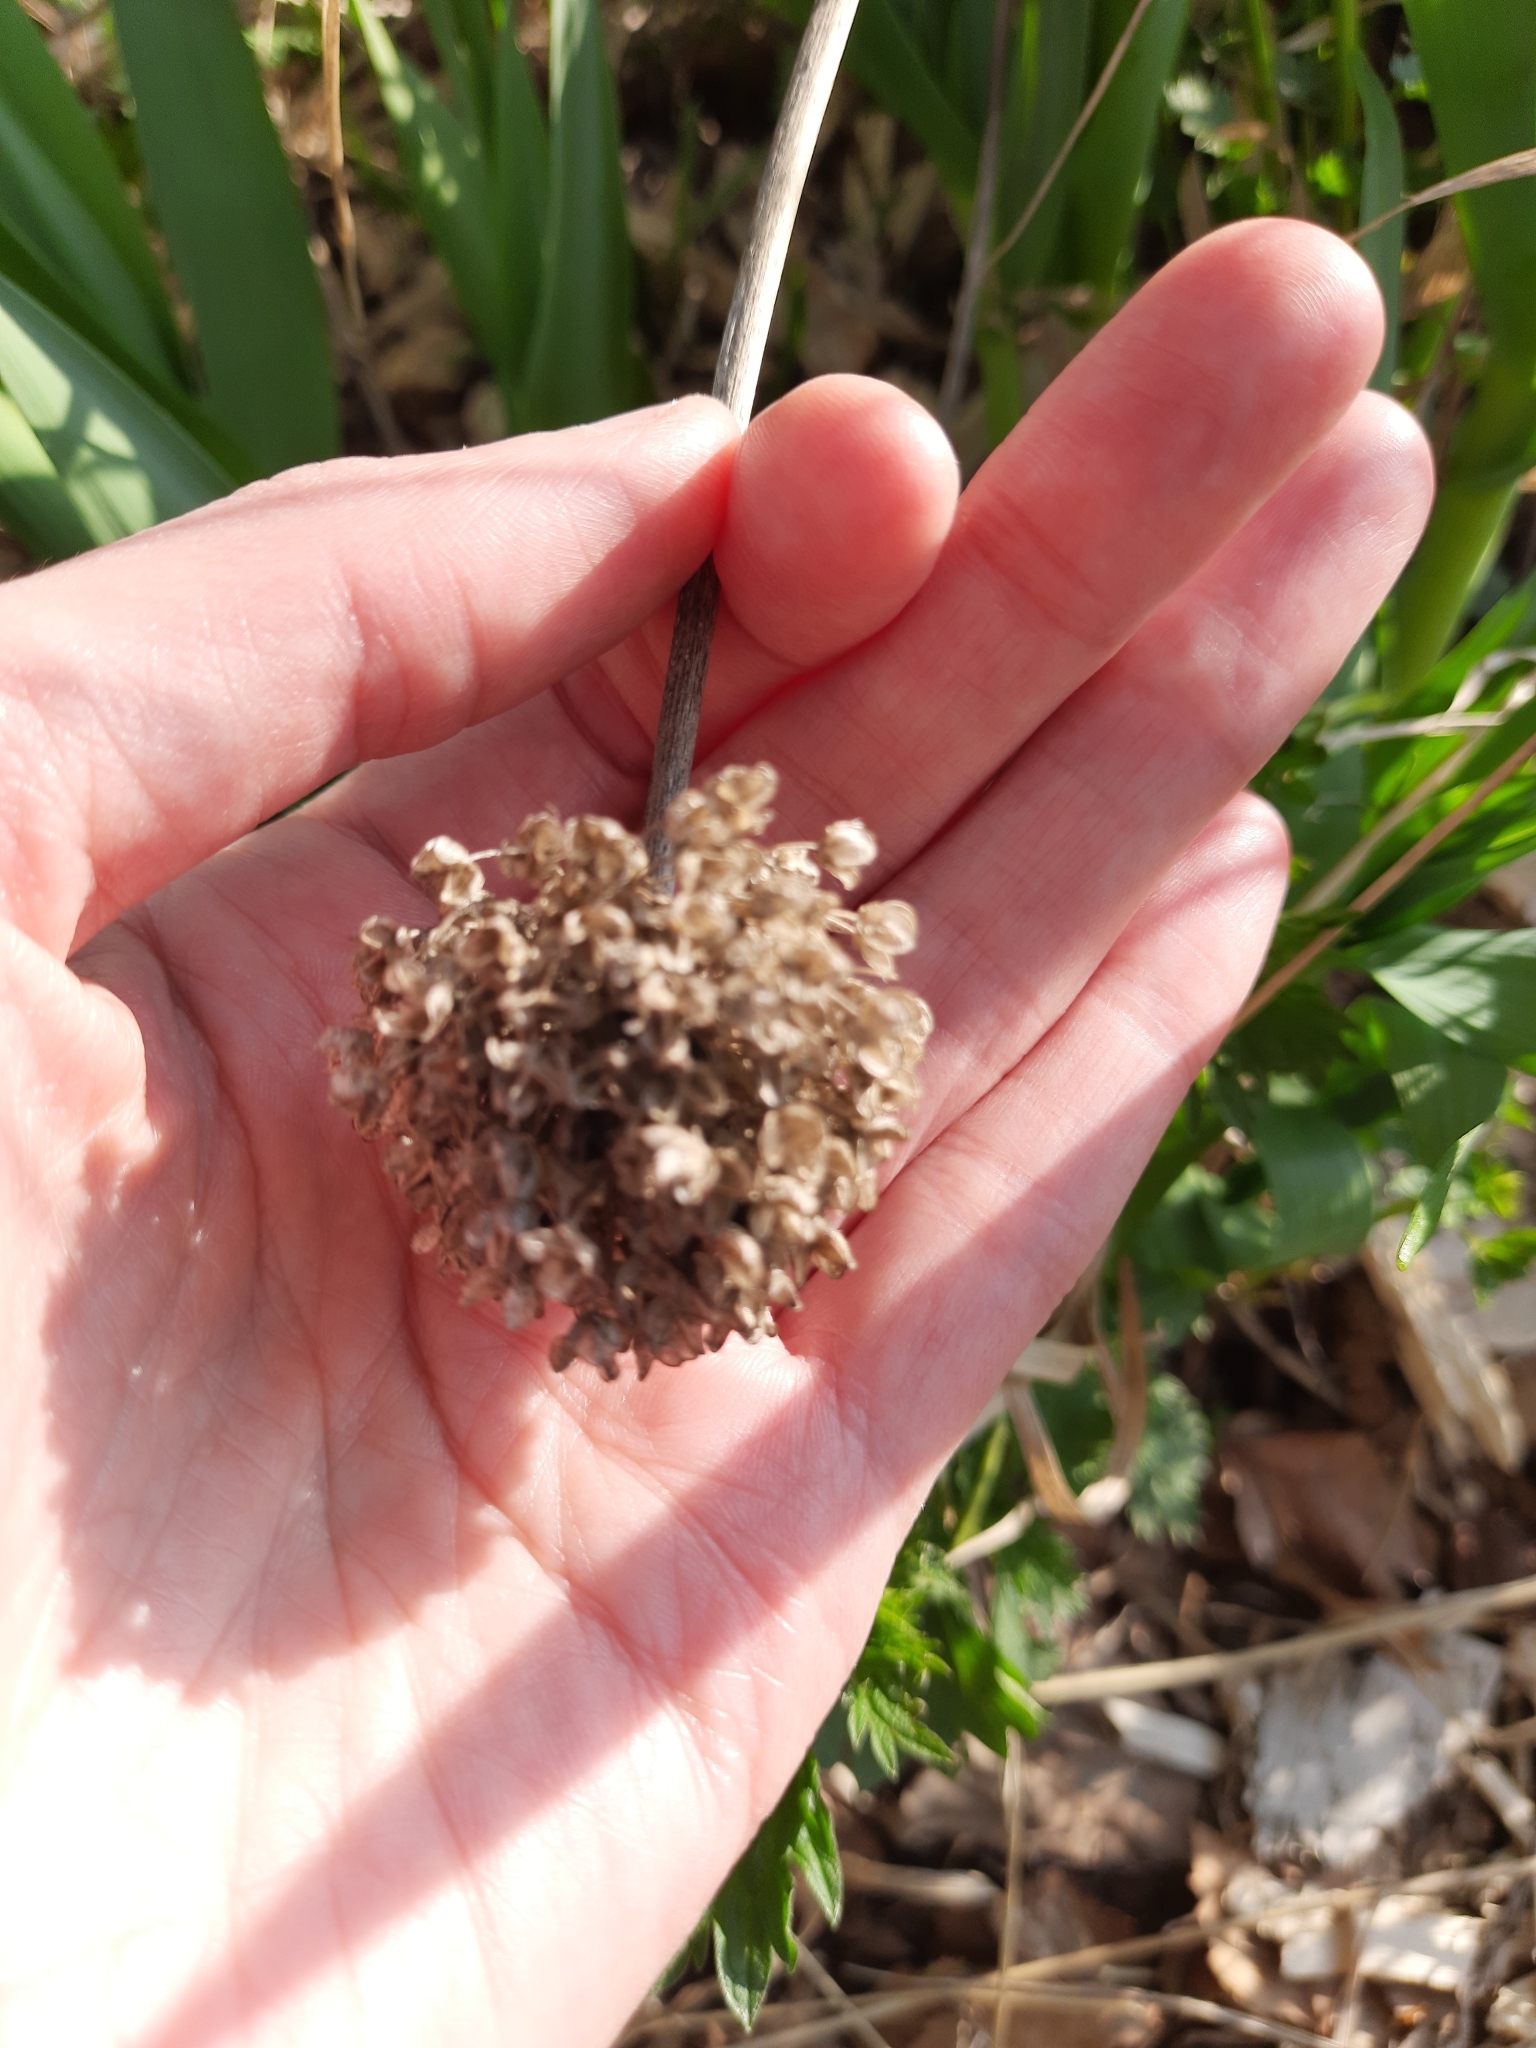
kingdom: Plantae
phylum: Tracheophyta
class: Liliopsida
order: Asparagales
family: Amaryllidaceae
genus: Allium
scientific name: Allium obliquum
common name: Oblique onion
